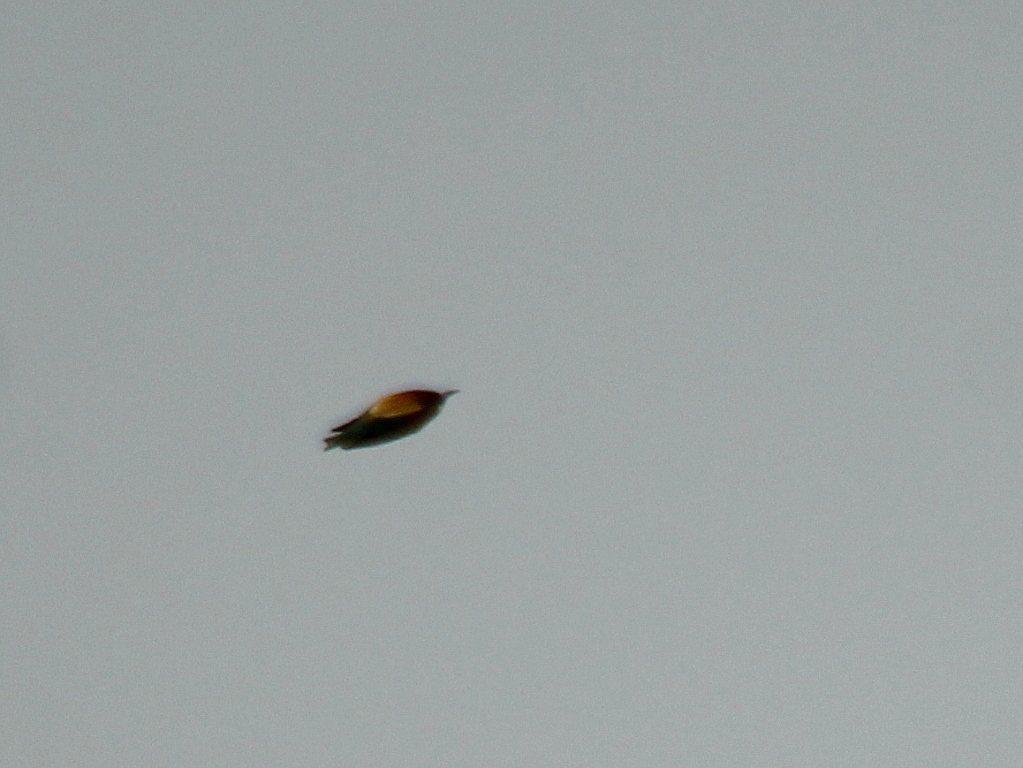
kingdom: Animalia
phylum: Chordata
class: Aves
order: Coraciiformes
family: Meropidae
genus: Merops
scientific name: Merops apiaster
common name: European bee-eater
